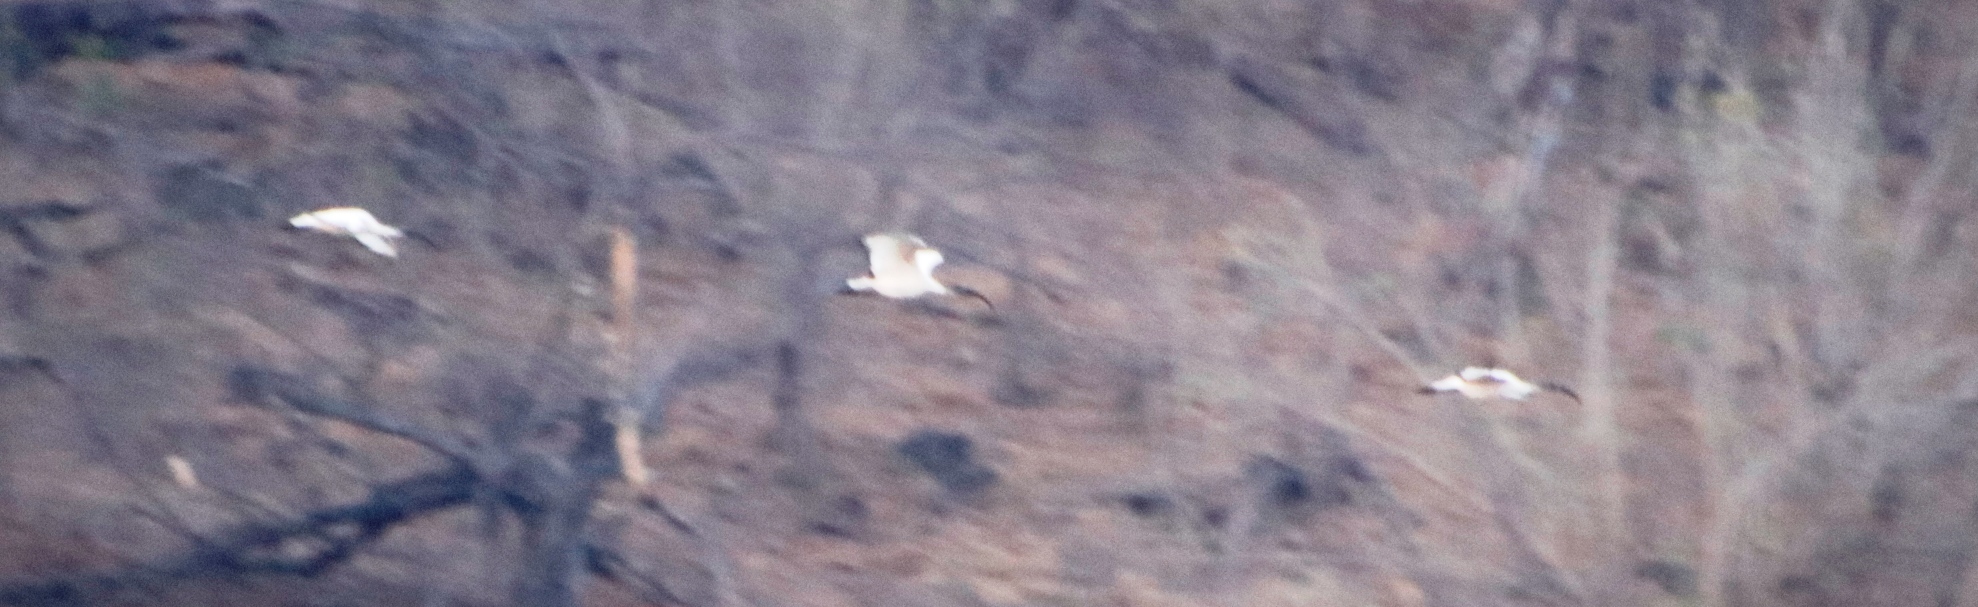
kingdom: Animalia
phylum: Chordata
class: Aves
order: Pelecaniformes
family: Threskiornithidae
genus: Threskiornis
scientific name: Threskiornis aethiopicus
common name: Sacred ibis
